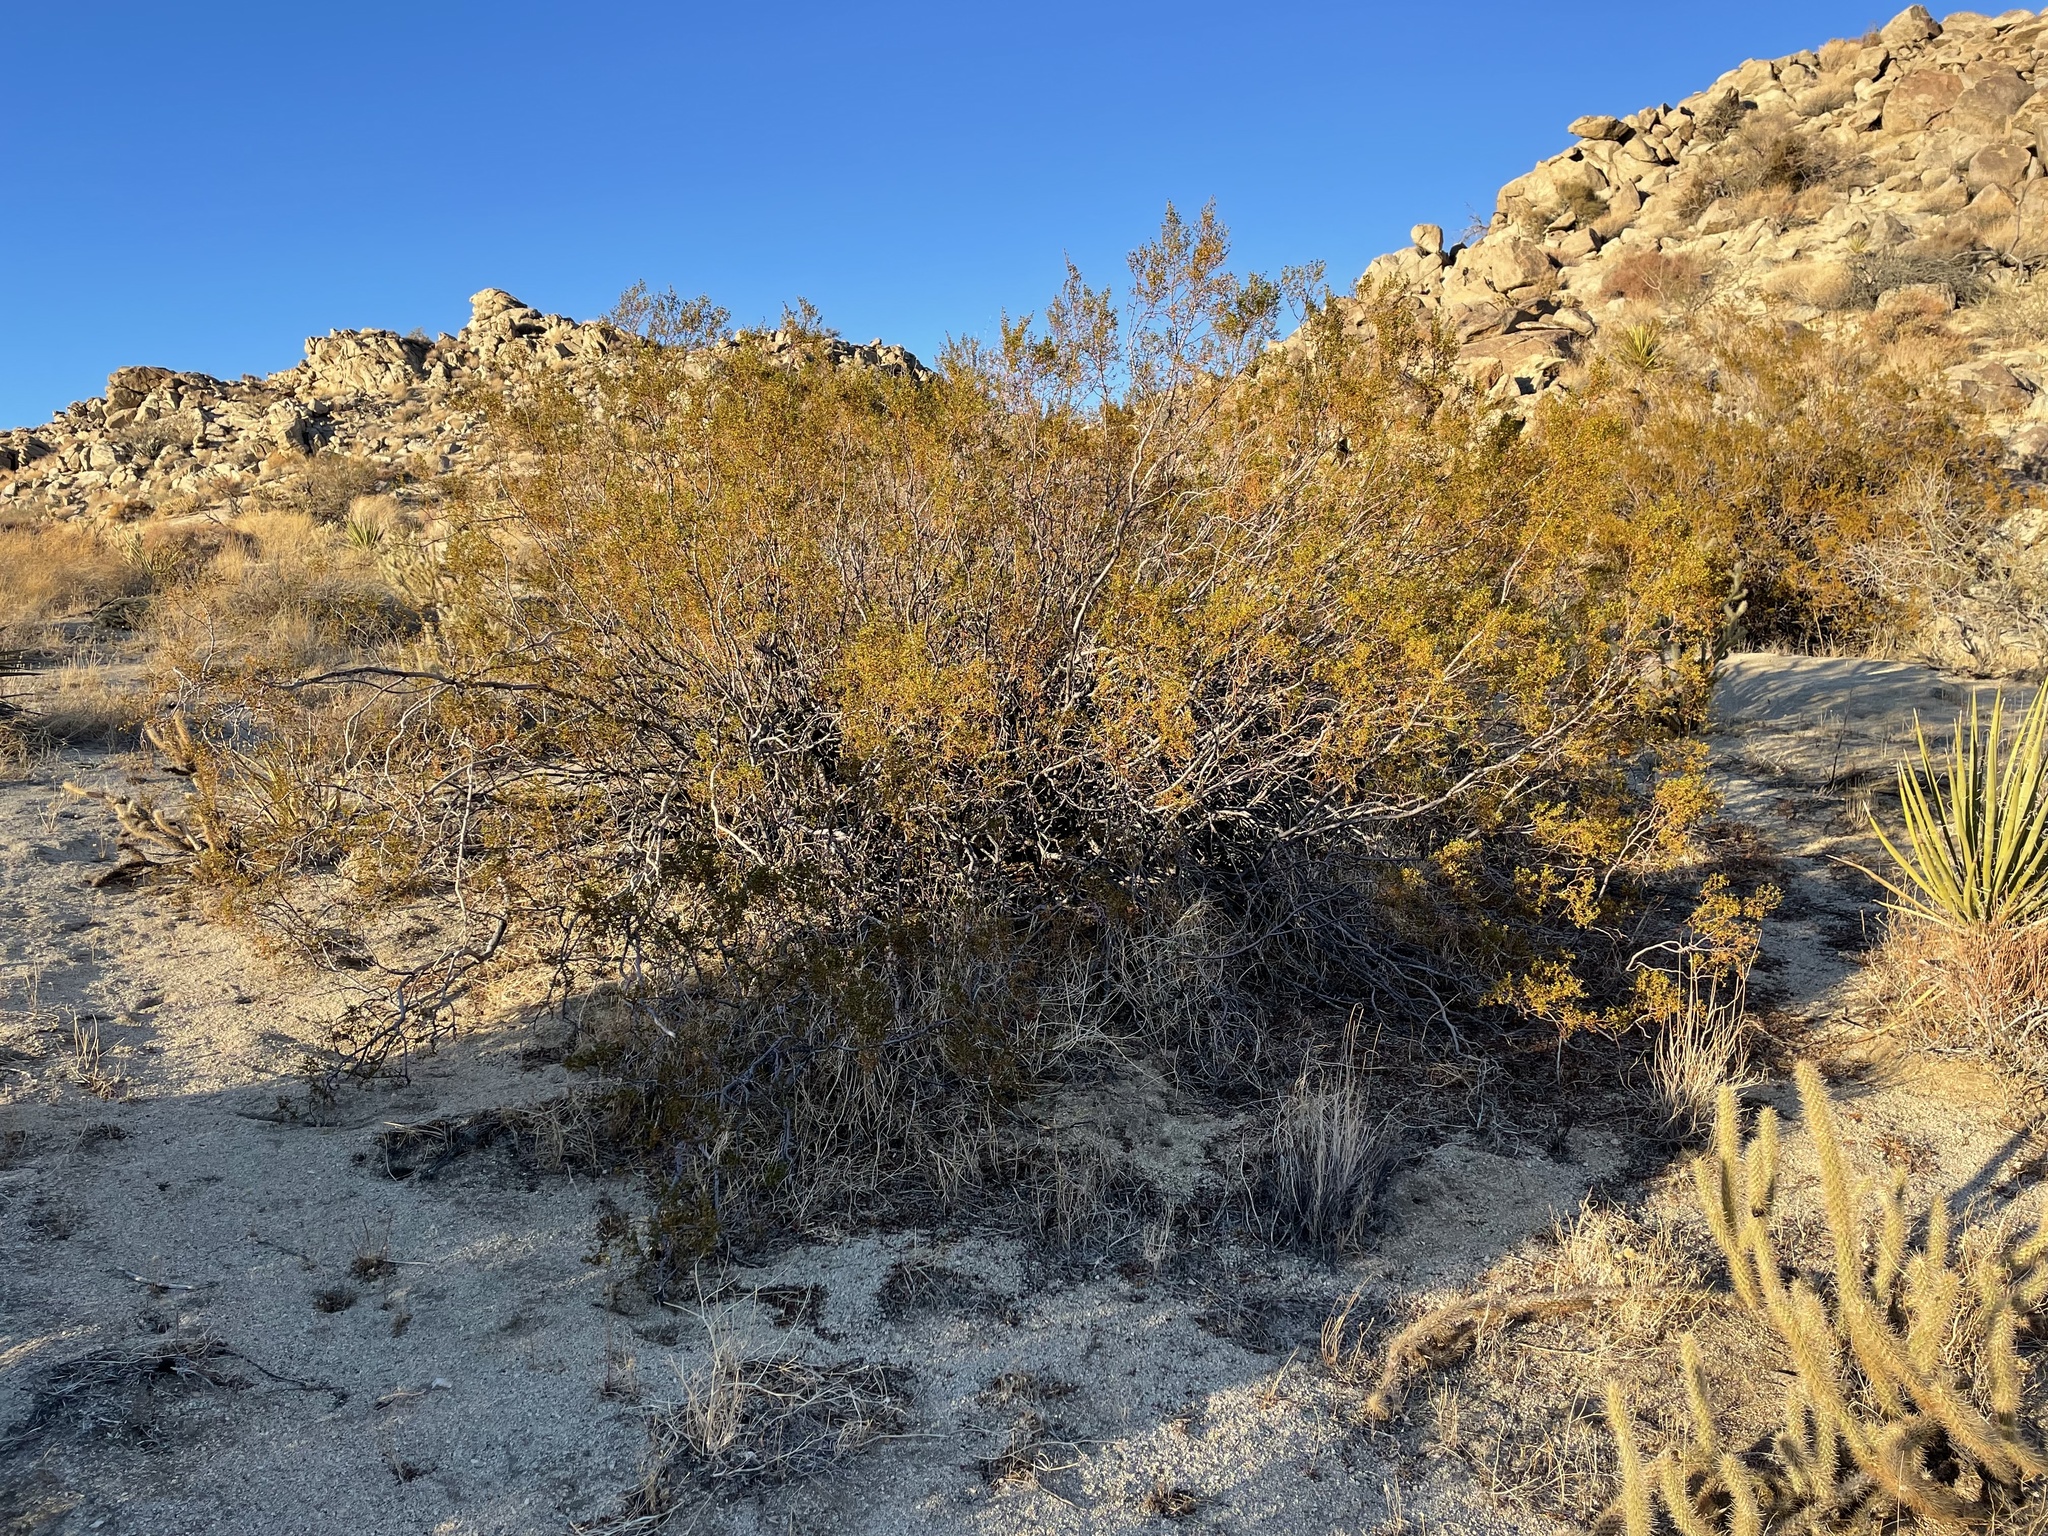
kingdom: Plantae
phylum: Tracheophyta
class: Magnoliopsida
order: Zygophyllales
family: Zygophyllaceae
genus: Larrea
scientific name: Larrea tridentata
